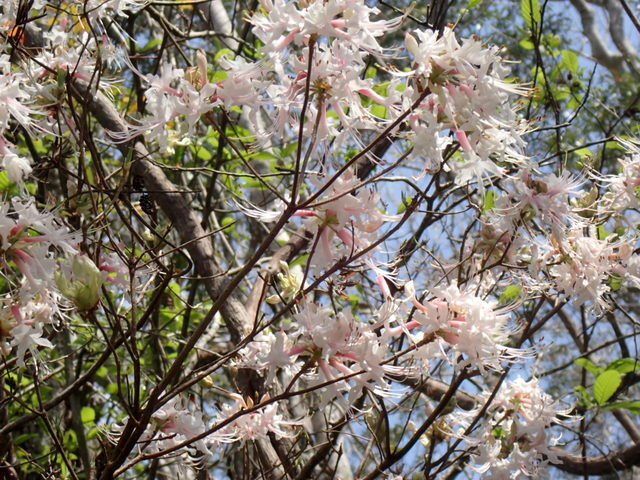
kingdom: Plantae
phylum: Tracheophyta
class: Magnoliopsida
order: Ericales
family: Ericaceae
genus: Rhododendron
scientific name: Rhododendron canescens
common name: Mountain azalea
